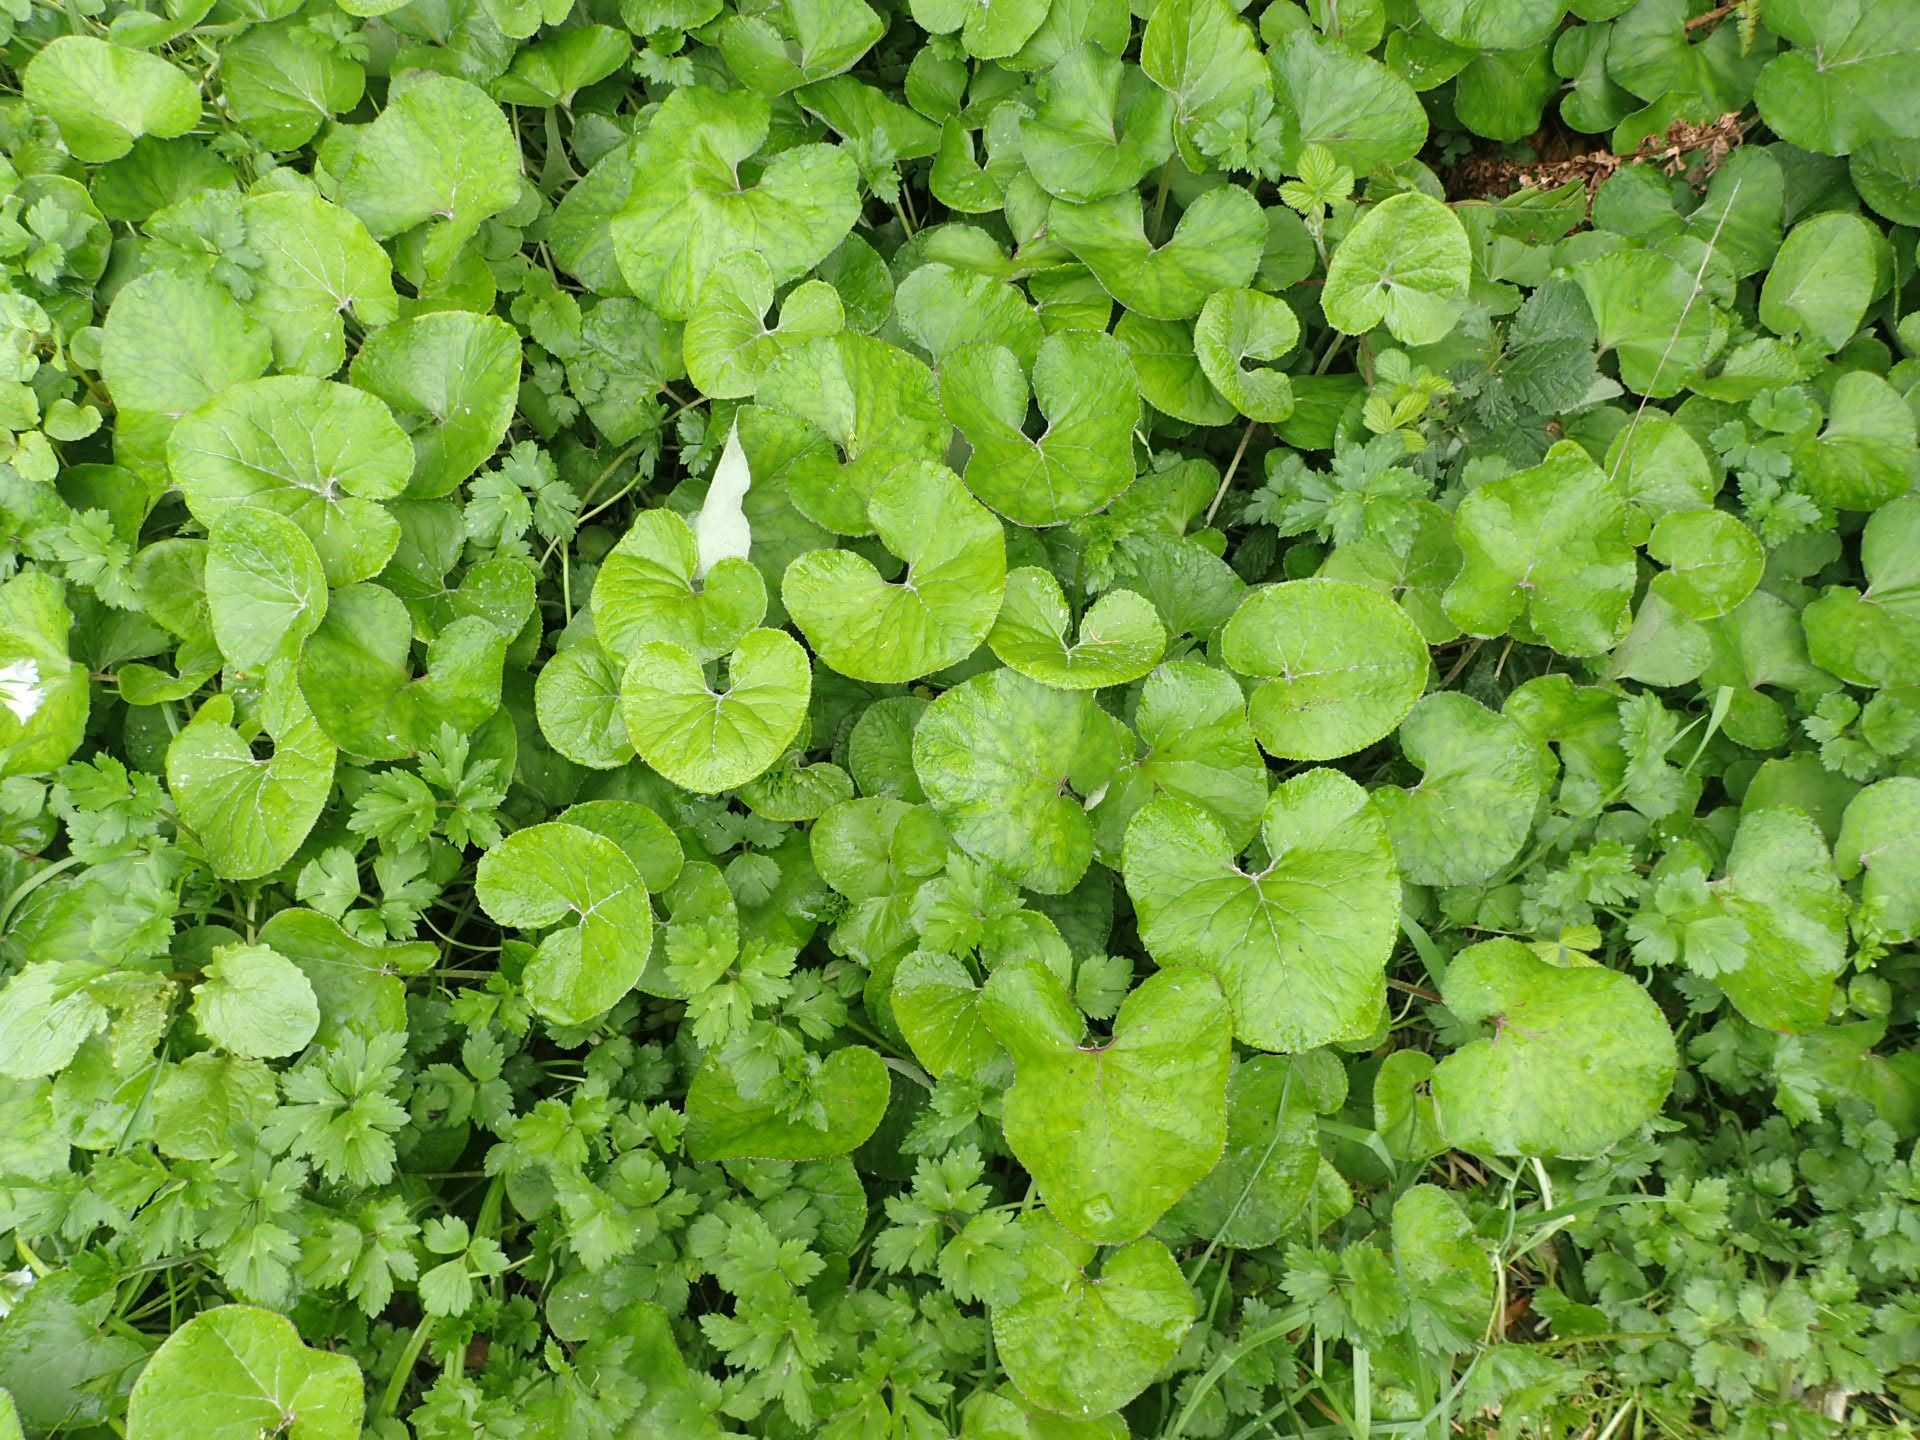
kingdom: Plantae
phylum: Tracheophyta
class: Magnoliopsida
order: Asterales
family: Asteraceae
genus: Petasites
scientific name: Petasites pyrenaicus
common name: Winter heliotrope
